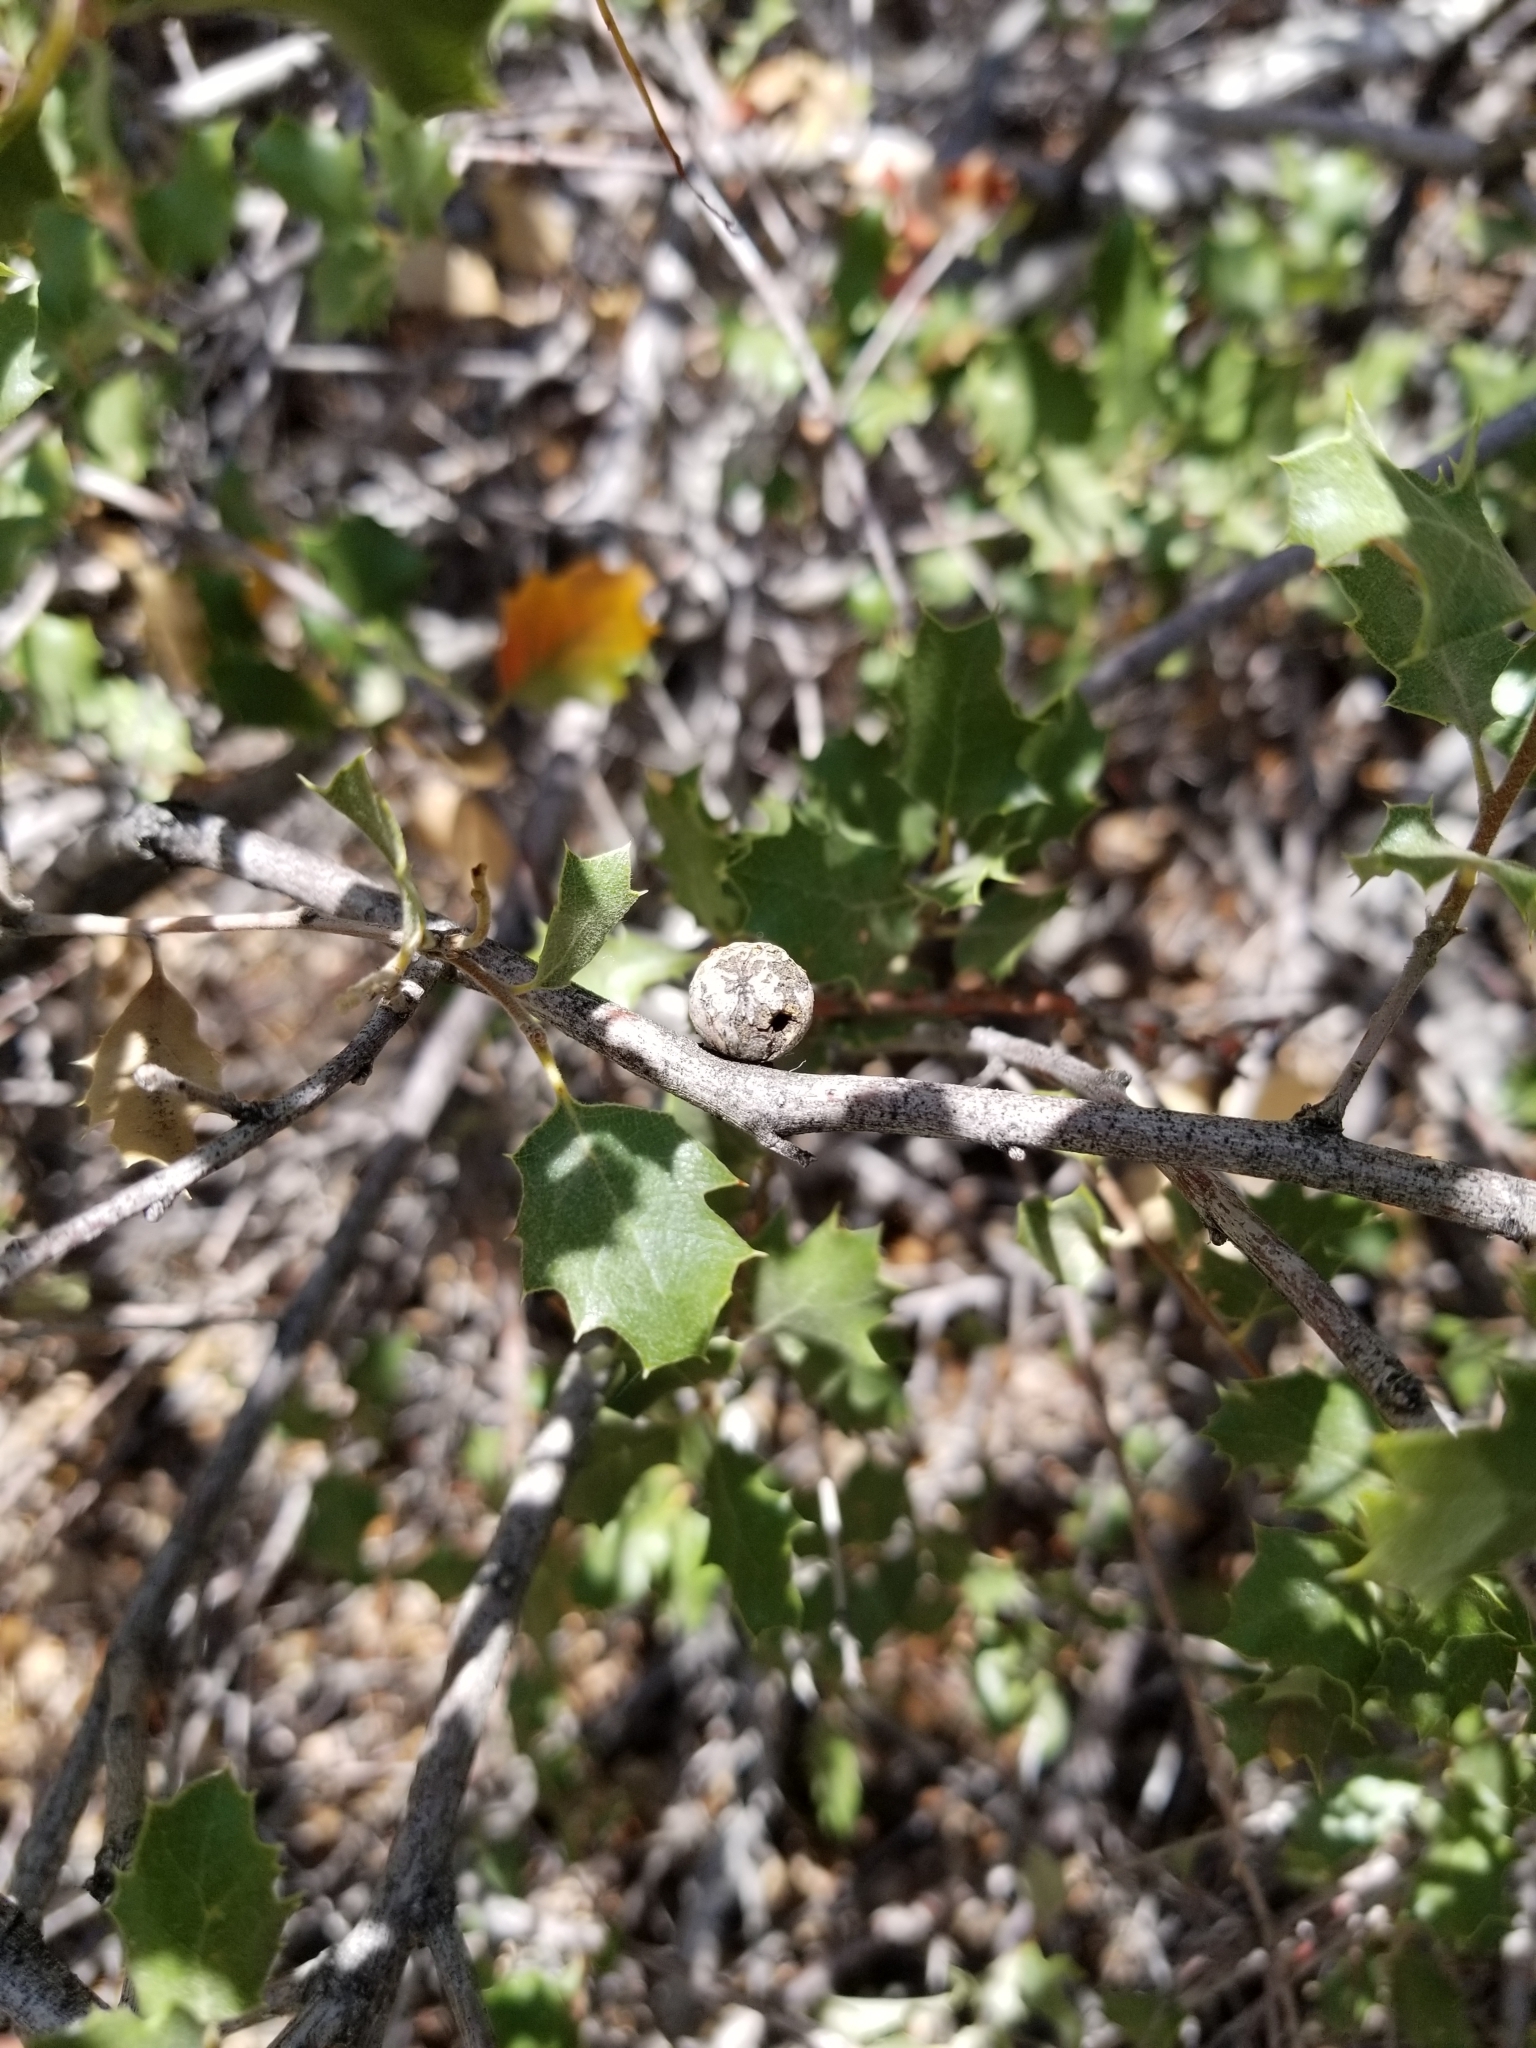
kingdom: Plantae
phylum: Tracheophyta
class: Magnoliopsida
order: Fagales
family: Fagaceae
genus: Quercus
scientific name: Quercus cornelius-mulleri
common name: Muller oak
